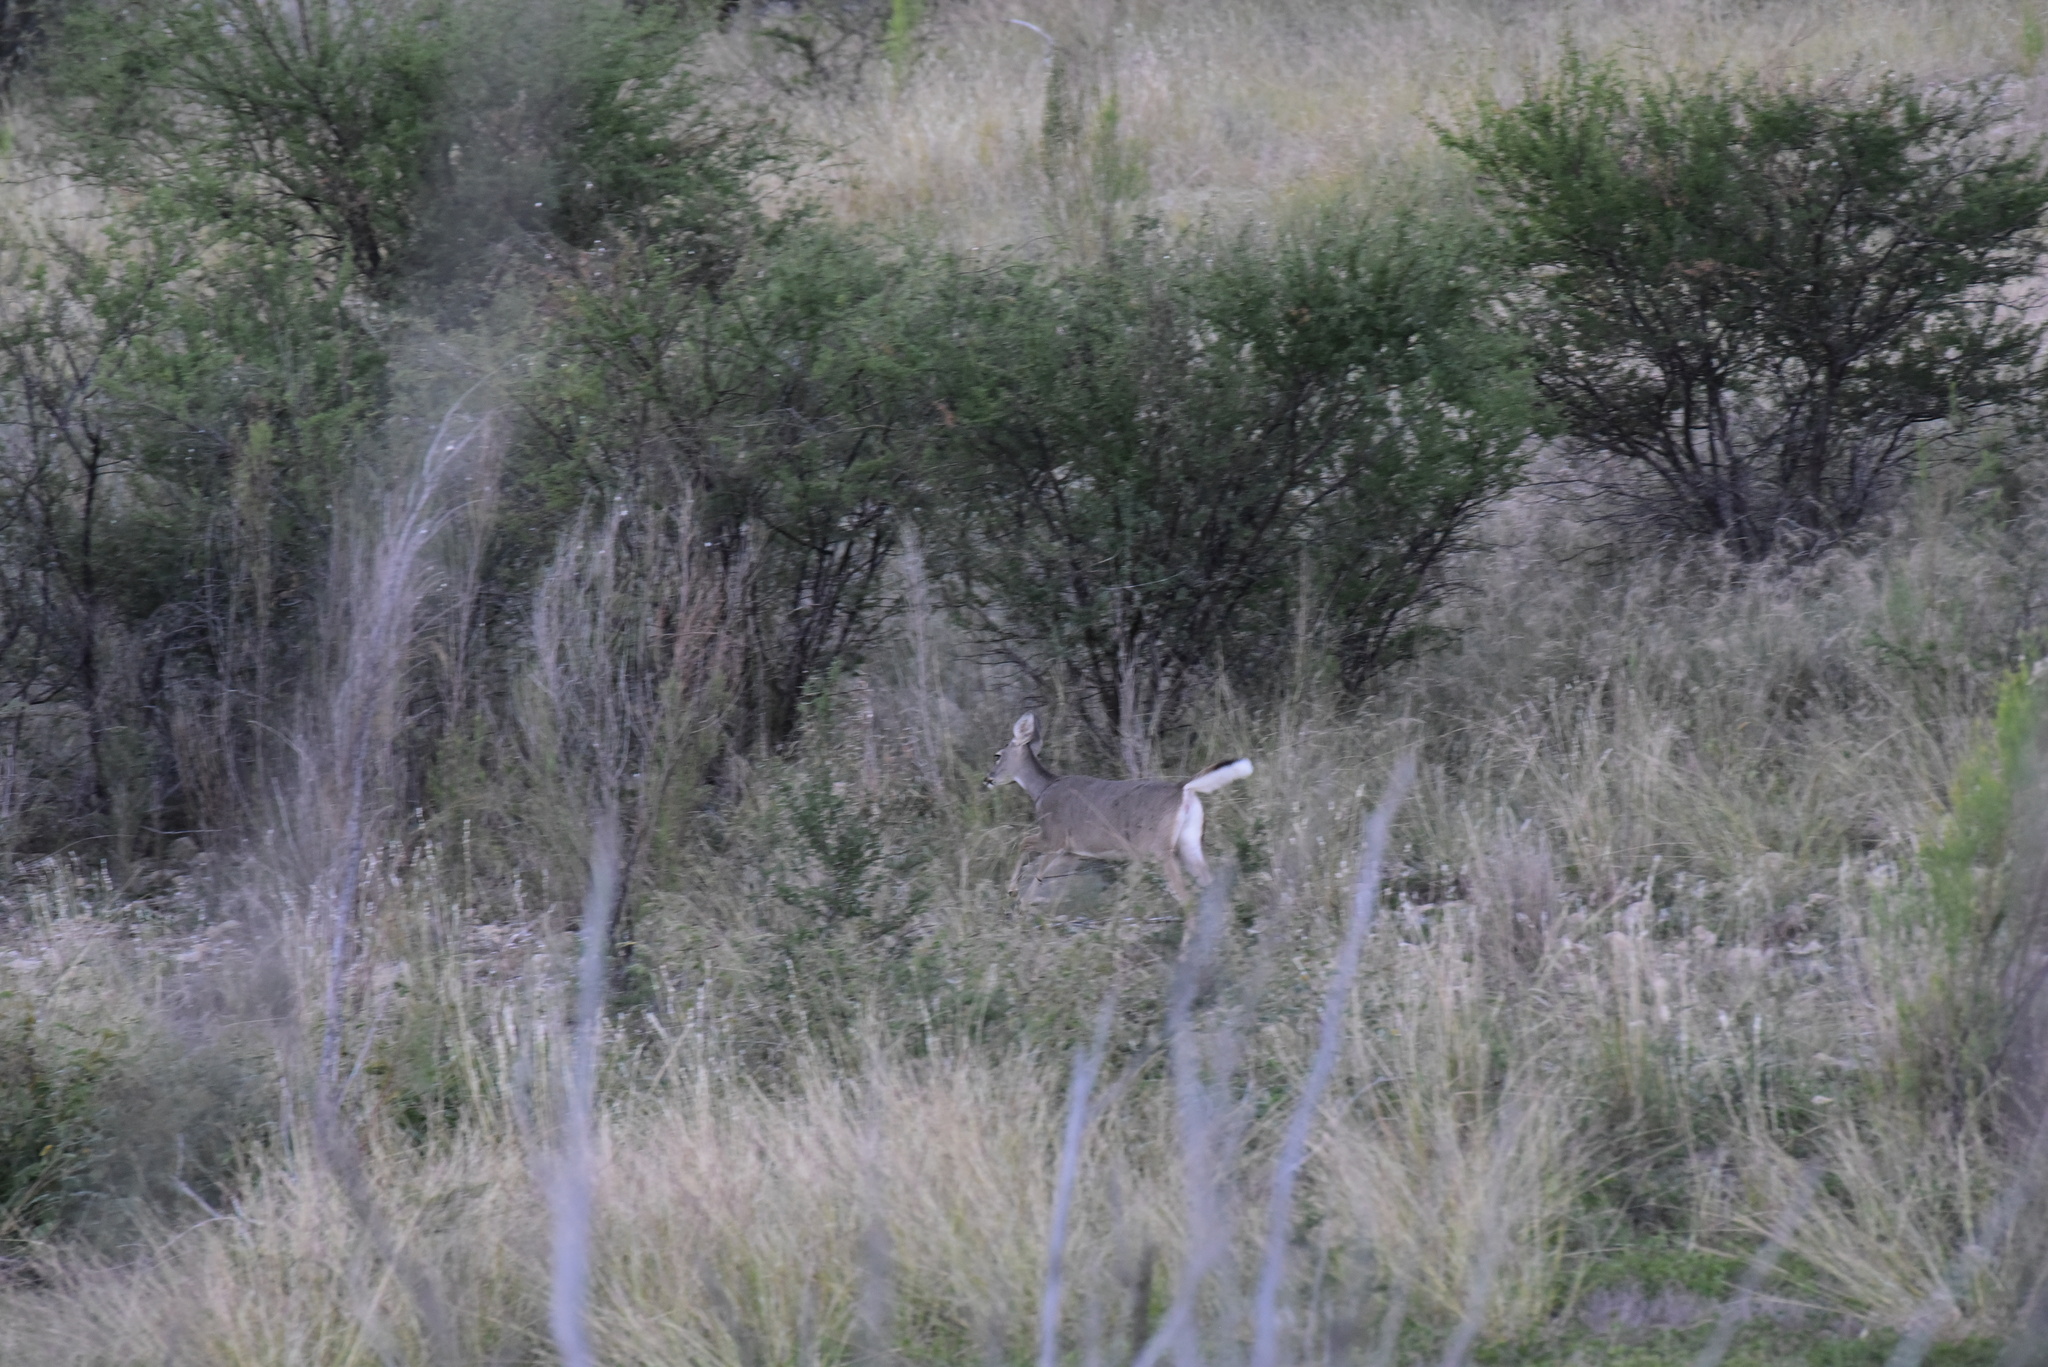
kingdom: Animalia
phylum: Chordata
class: Mammalia
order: Artiodactyla
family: Cervidae
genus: Odocoileus
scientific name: Odocoileus virginianus
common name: White-tailed deer
